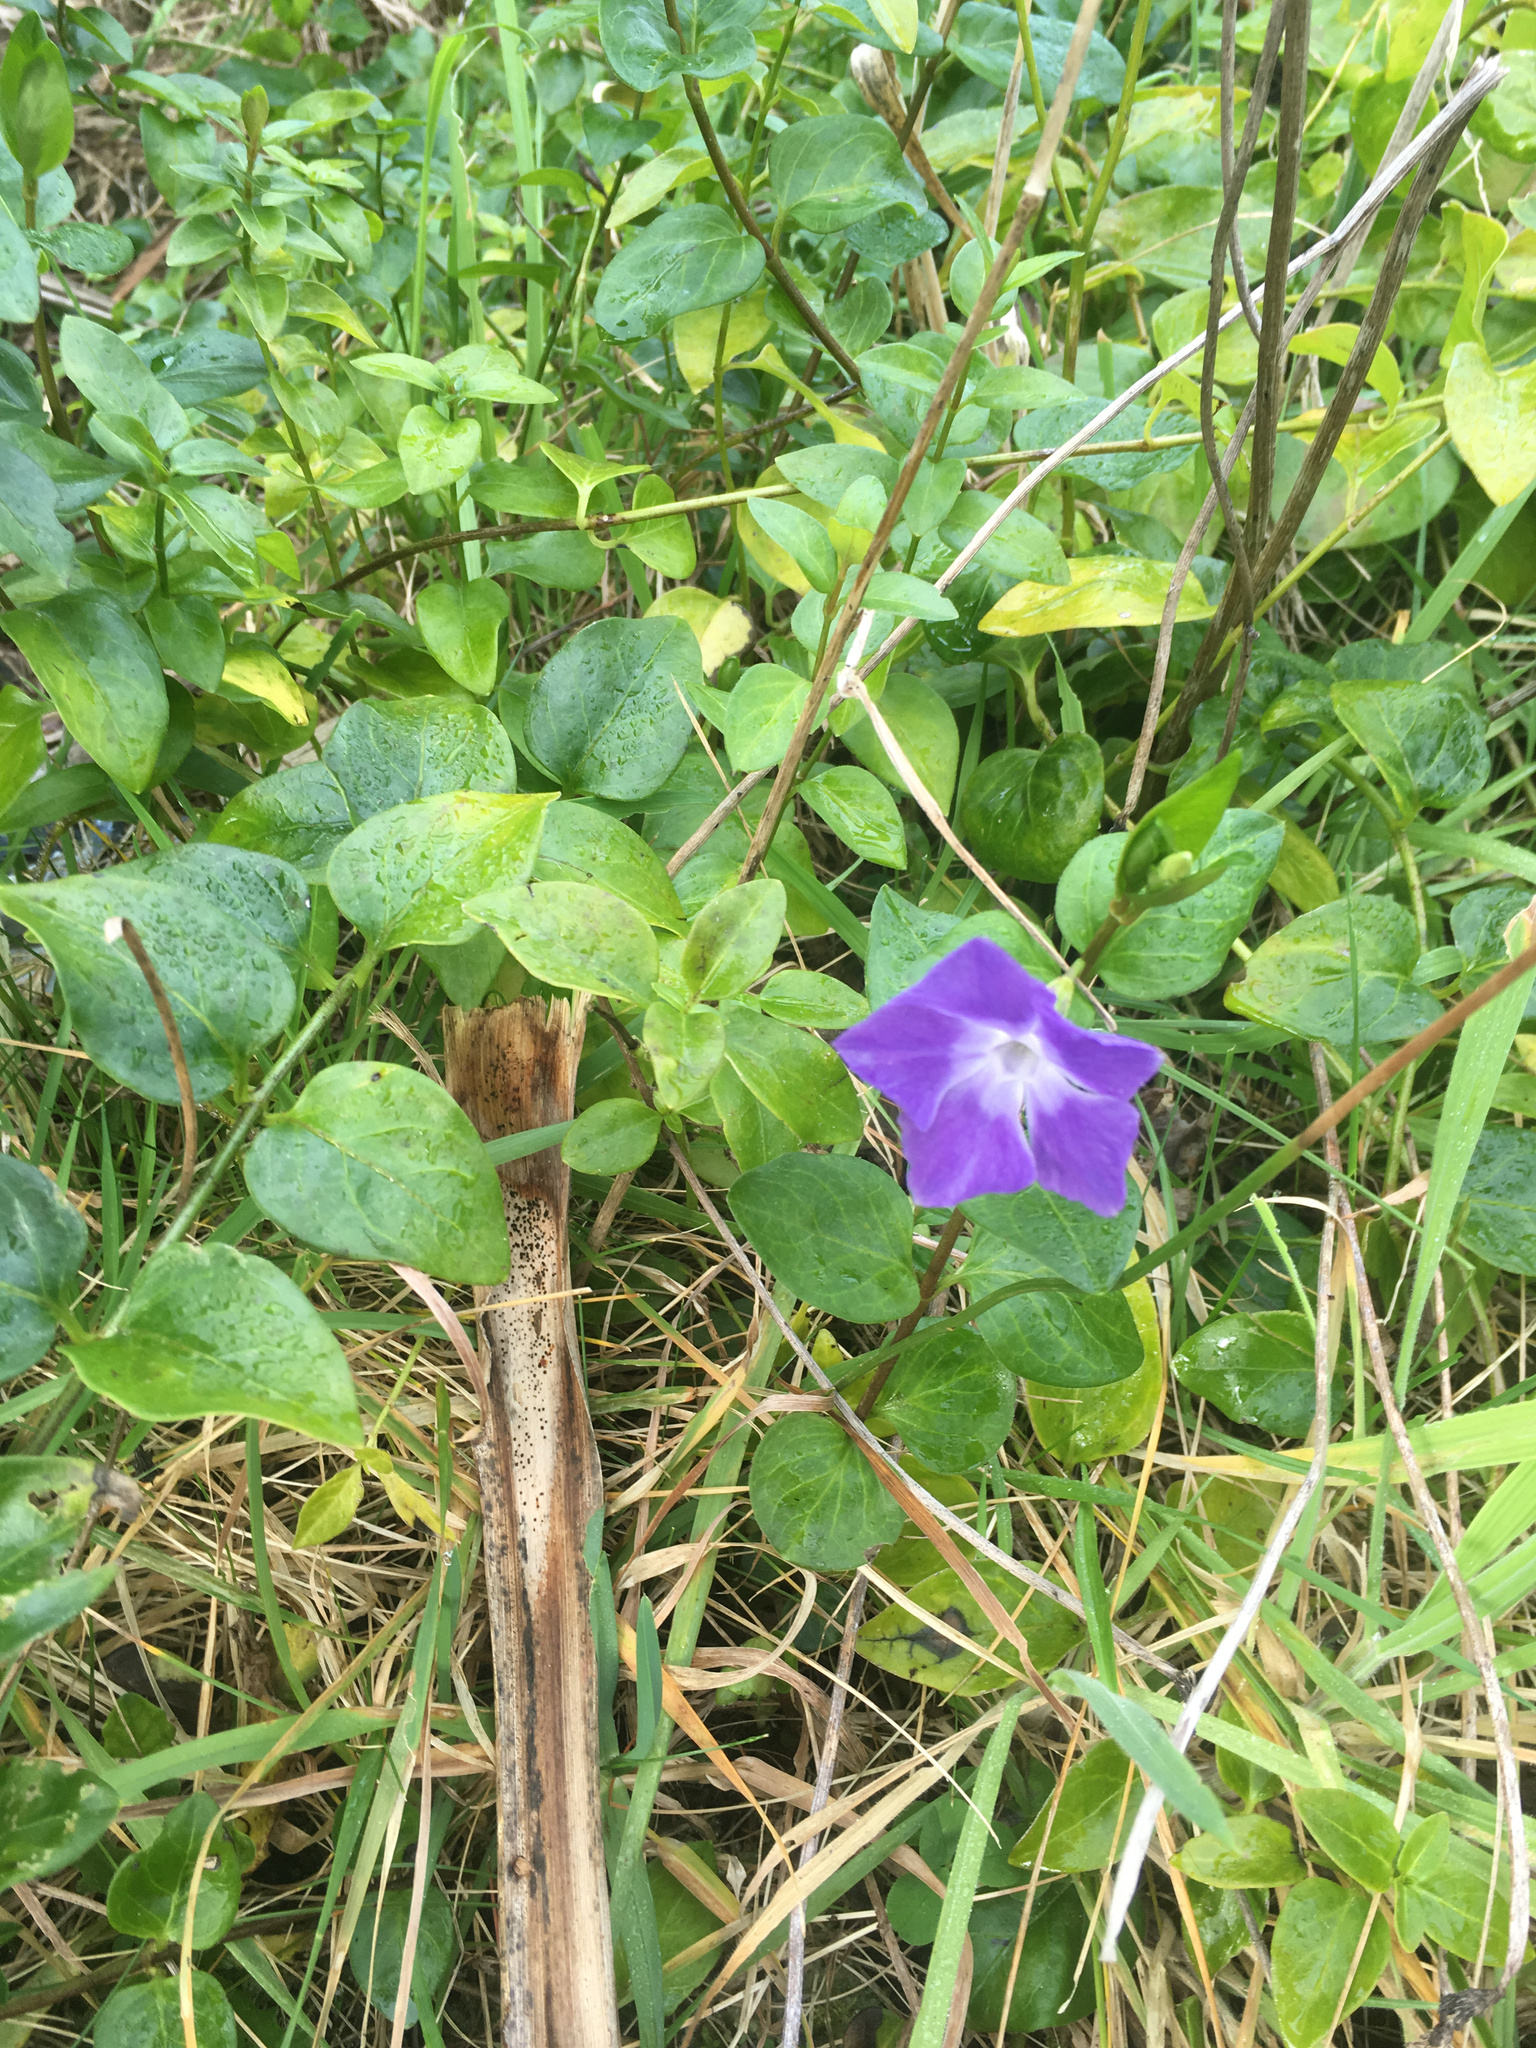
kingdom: Plantae
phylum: Tracheophyta
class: Magnoliopsida
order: Gentianales
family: Apocynaceae
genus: Vinca
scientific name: Vinca major
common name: Greater periwinkle
